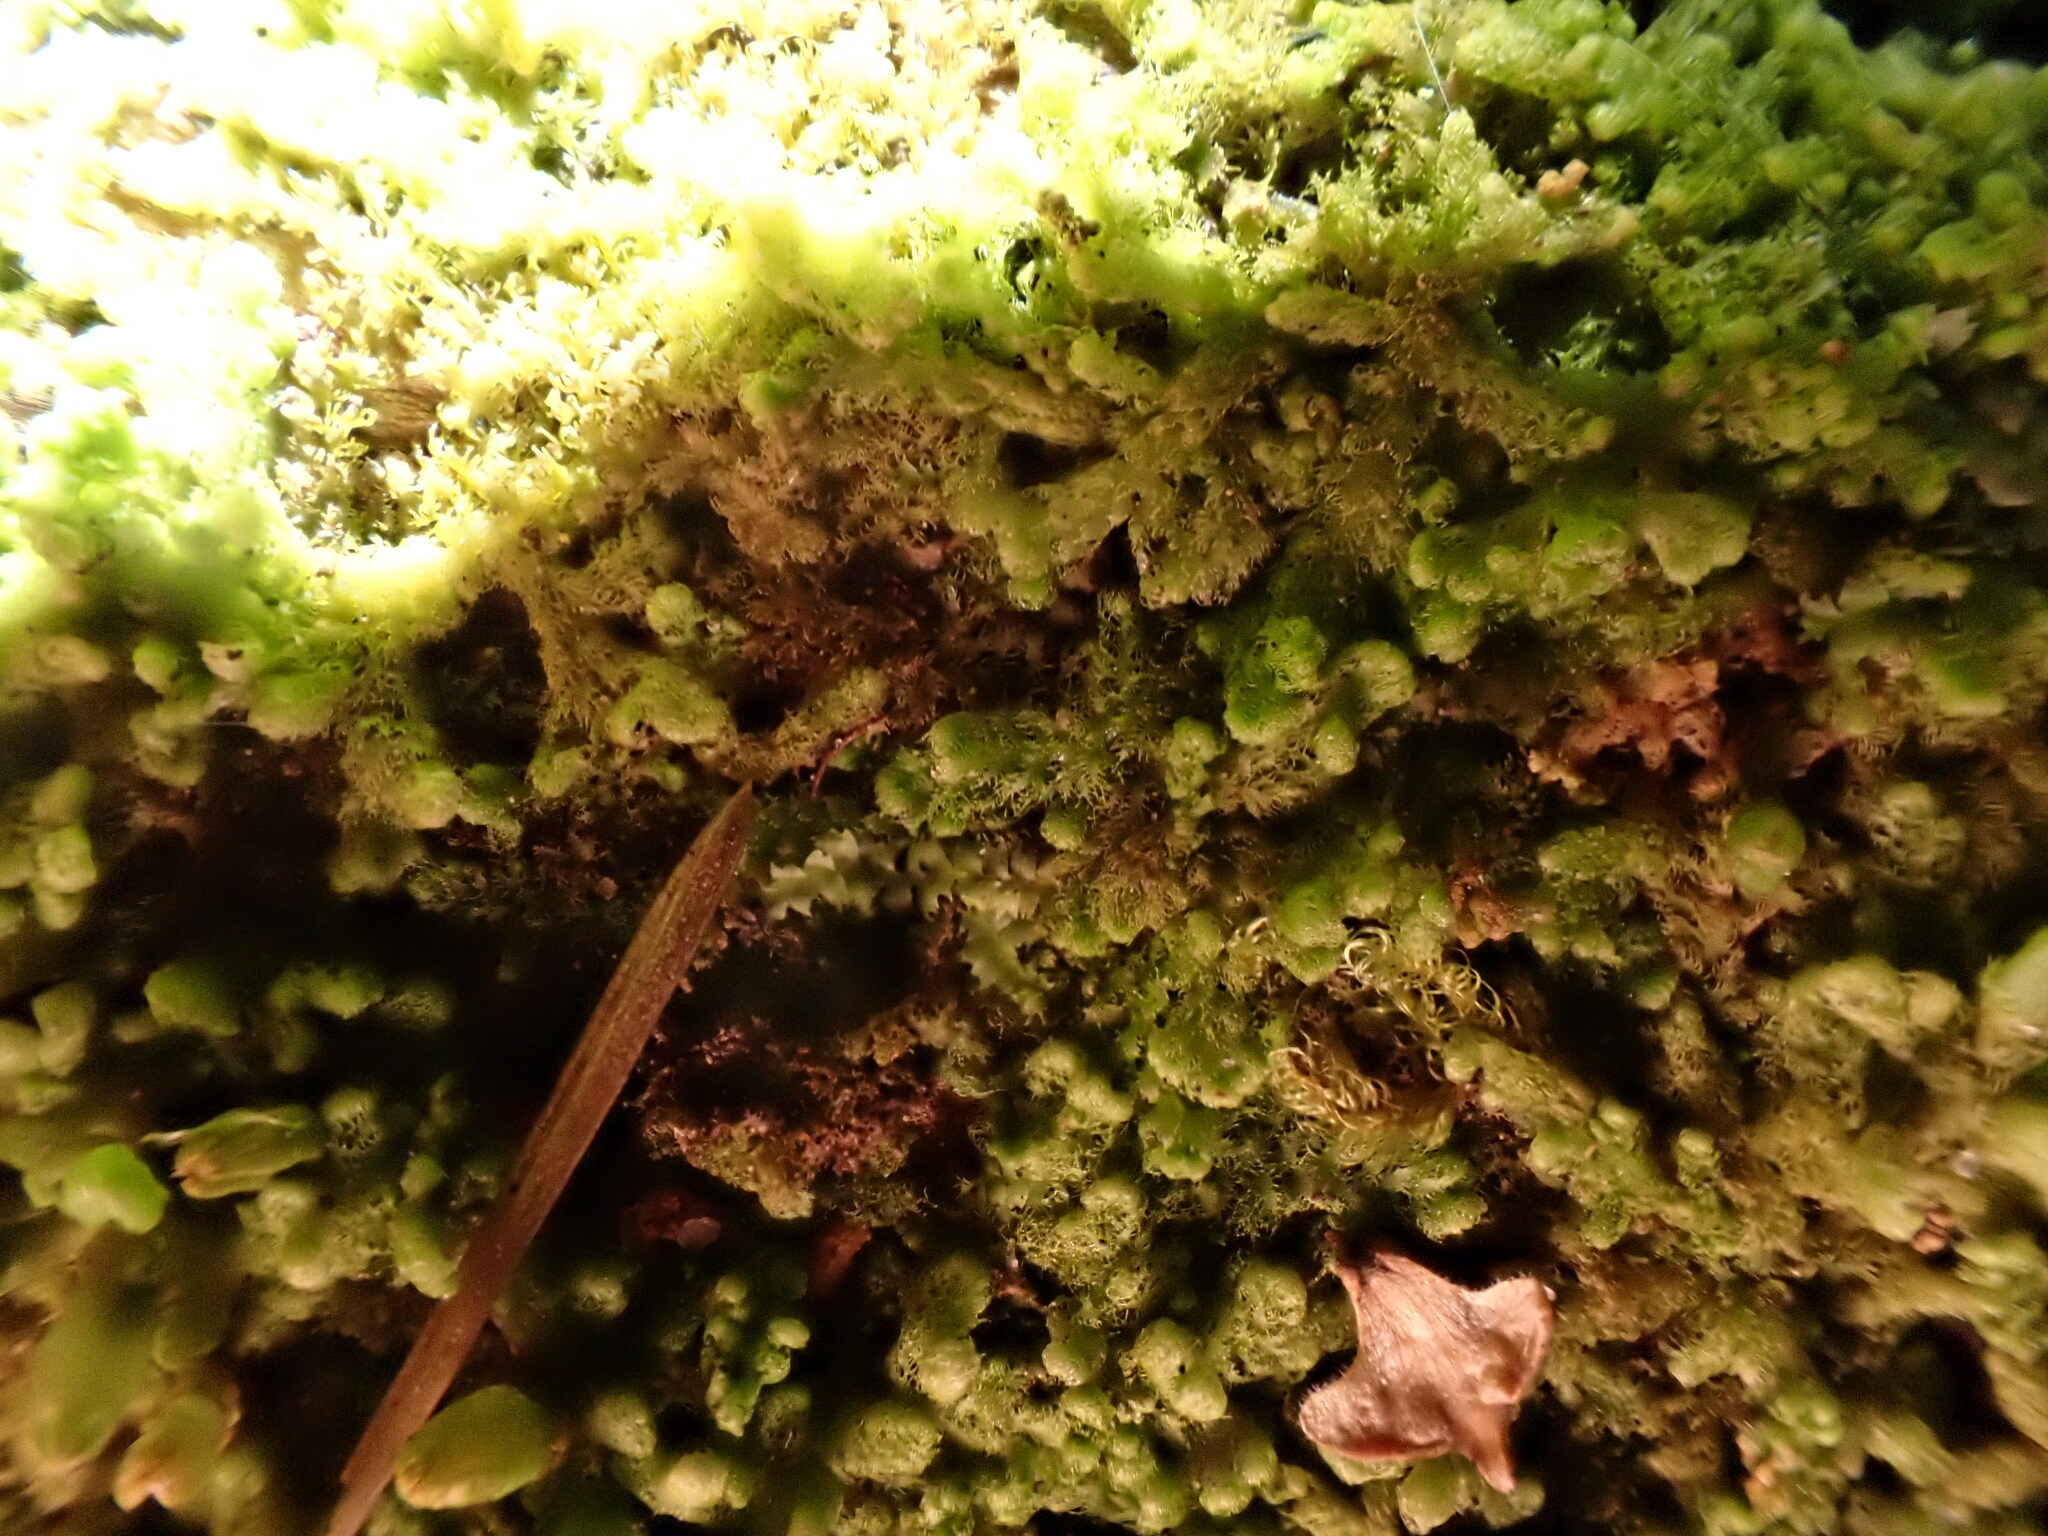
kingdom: Plantae
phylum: Marchantiophyta
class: Jungermanniopsida
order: Ptilidiales
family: Ptilidiaceae
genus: Ptilidium
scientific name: Ptilidium pulcherrimum
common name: Tree fringewort
